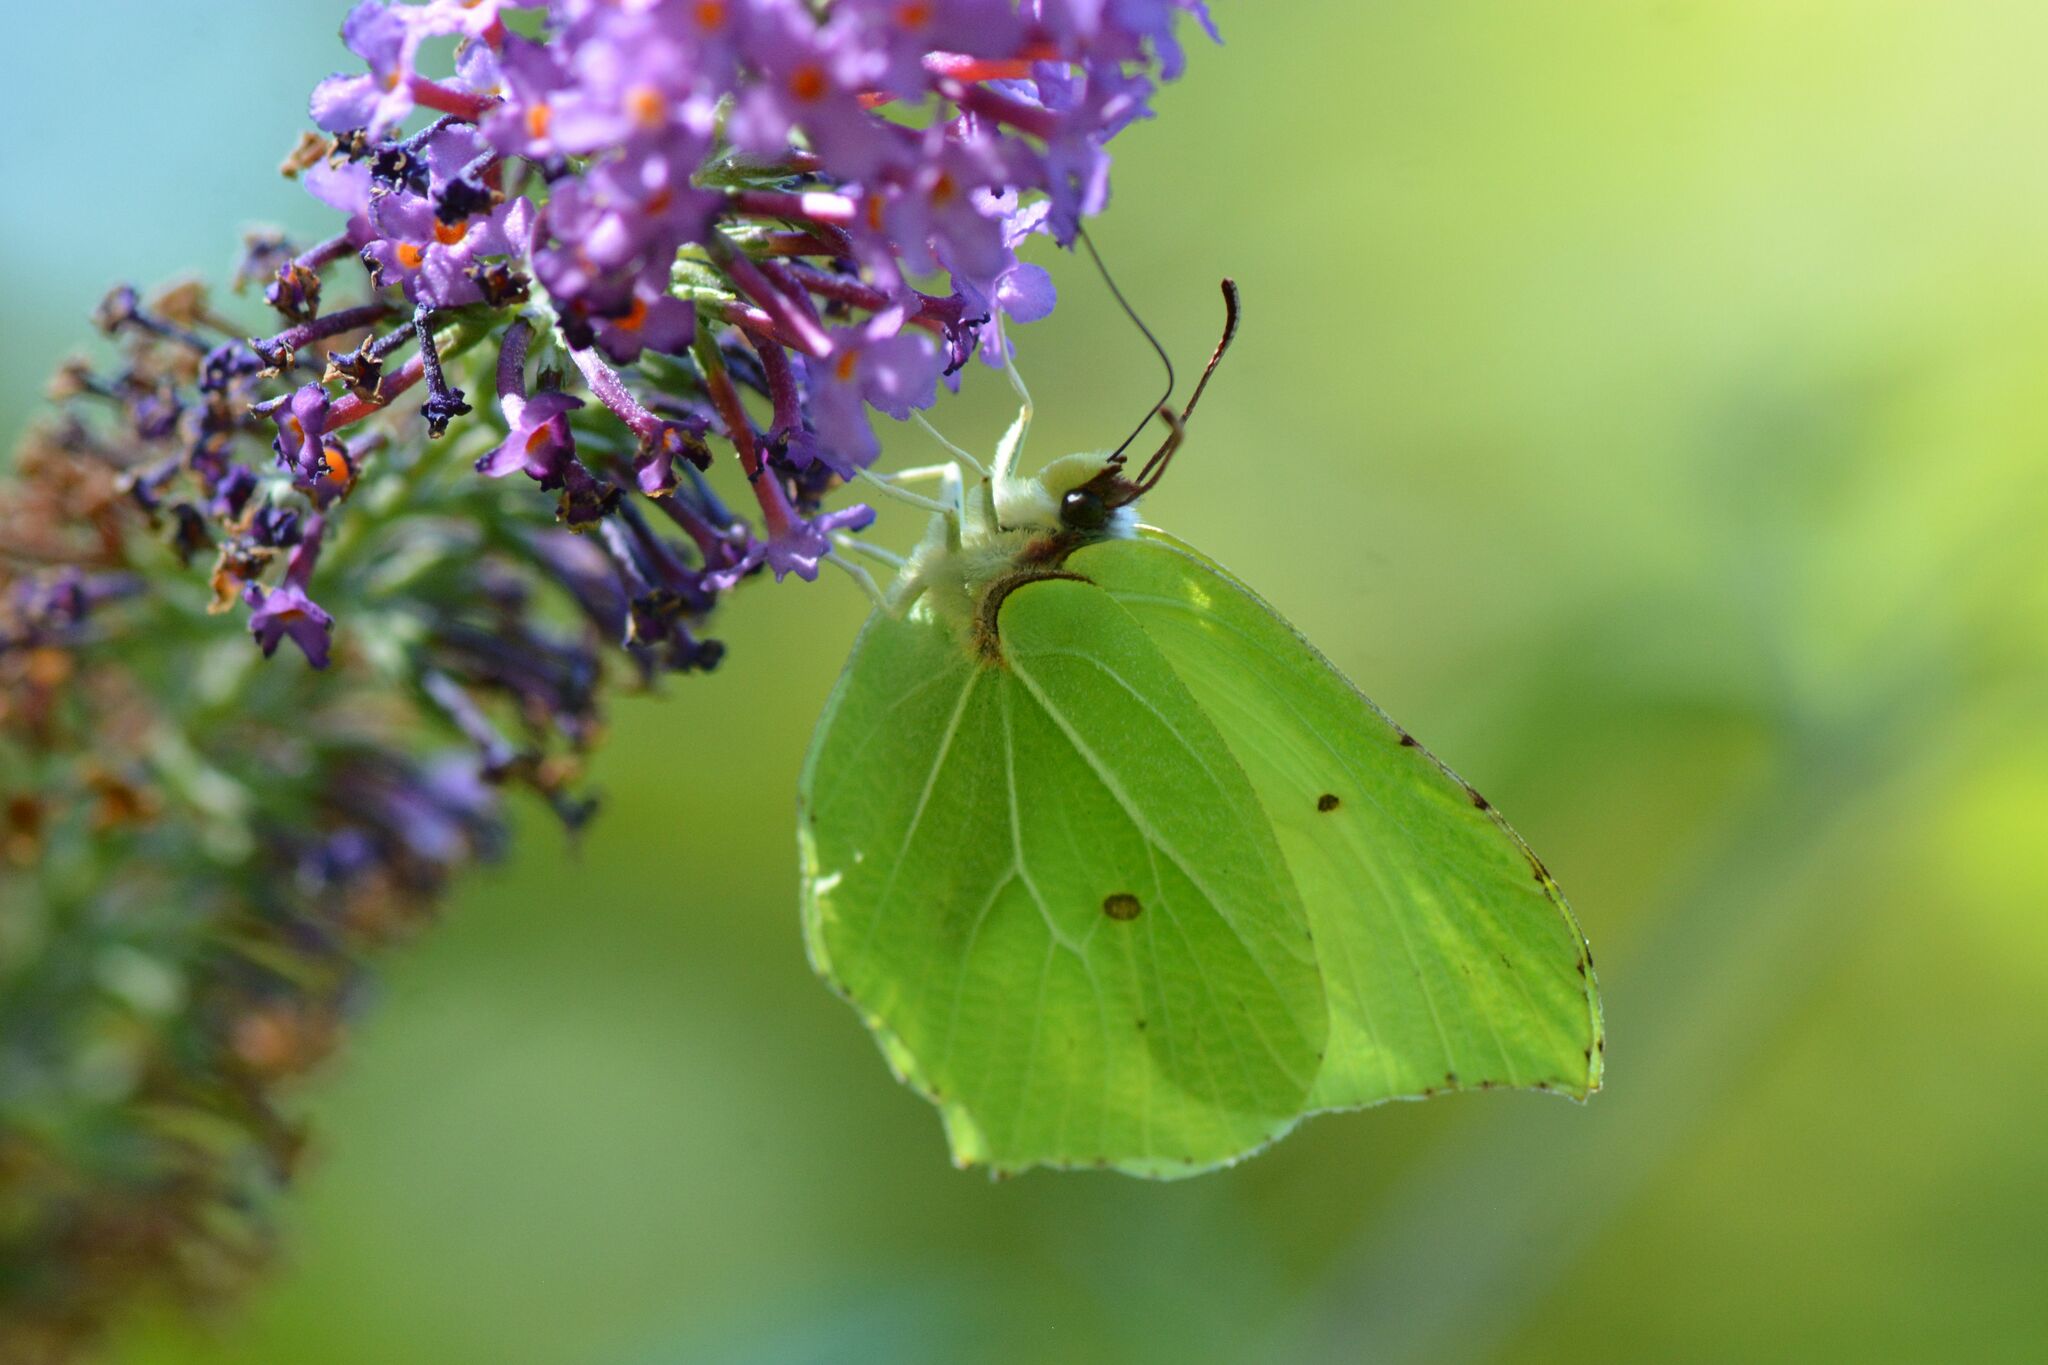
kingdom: Animalia
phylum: Arthropoda
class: Insecta
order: Lepidoptera
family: Pieridae
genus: Gonepteryx
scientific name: Gonepteryx rhamni
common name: Brimstone
